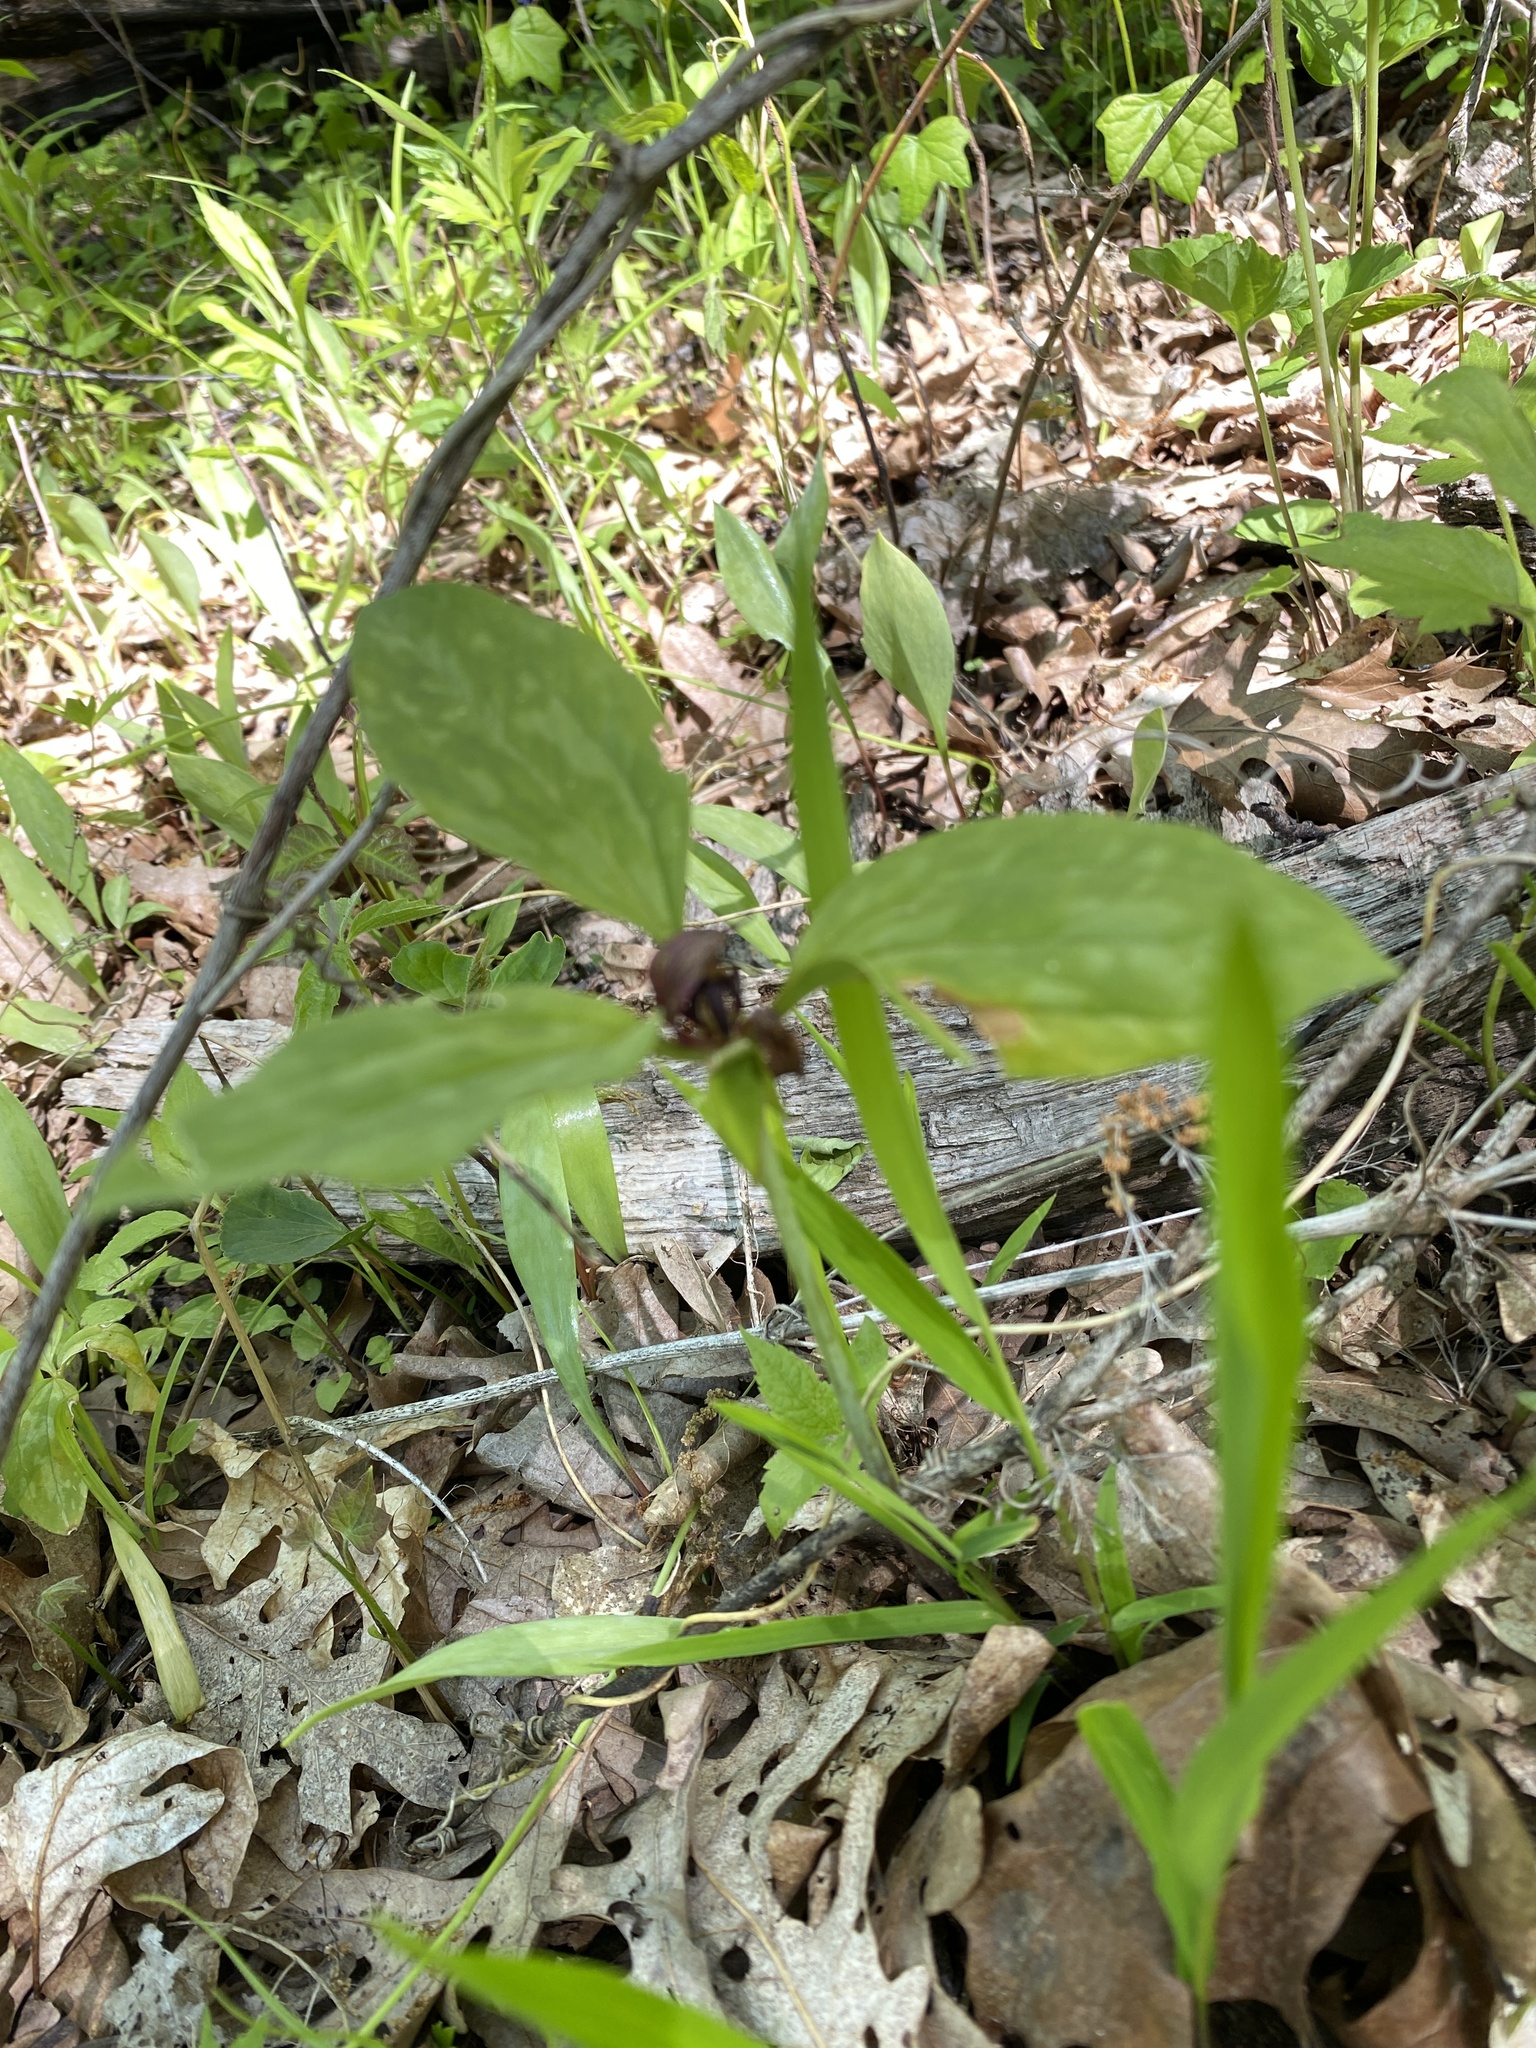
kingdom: Plantae
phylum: Tracheophyta
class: Liliopsida
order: Liliales
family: Melanthiaceae
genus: Trillium
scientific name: Trillium recurvatum
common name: Bloody butcher
